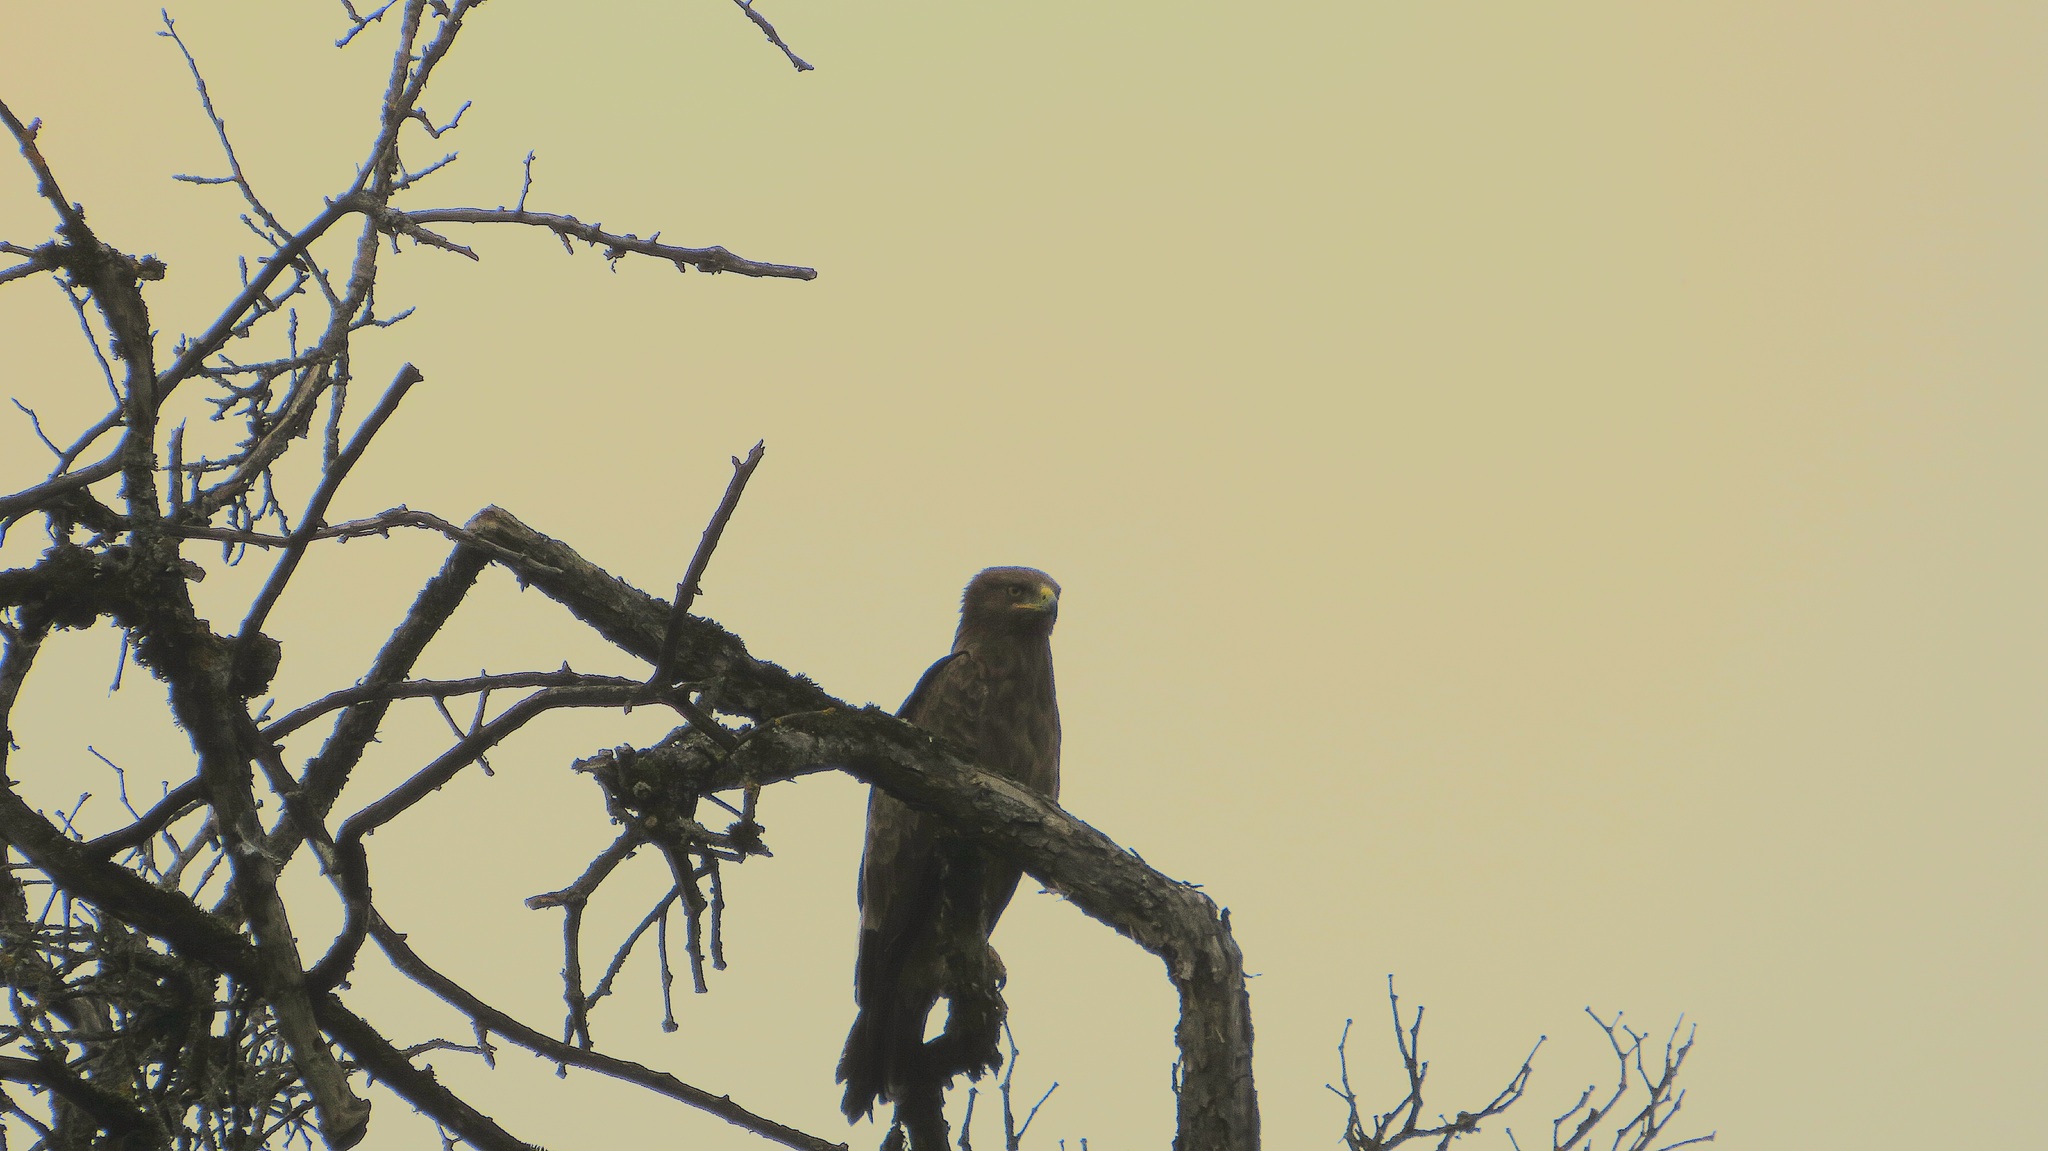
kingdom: Animalia
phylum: Chordata
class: Aves
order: Accipitriformes
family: Accipitridae
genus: Aquila
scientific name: Aquila pomarina
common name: Lesser spotted eagle
